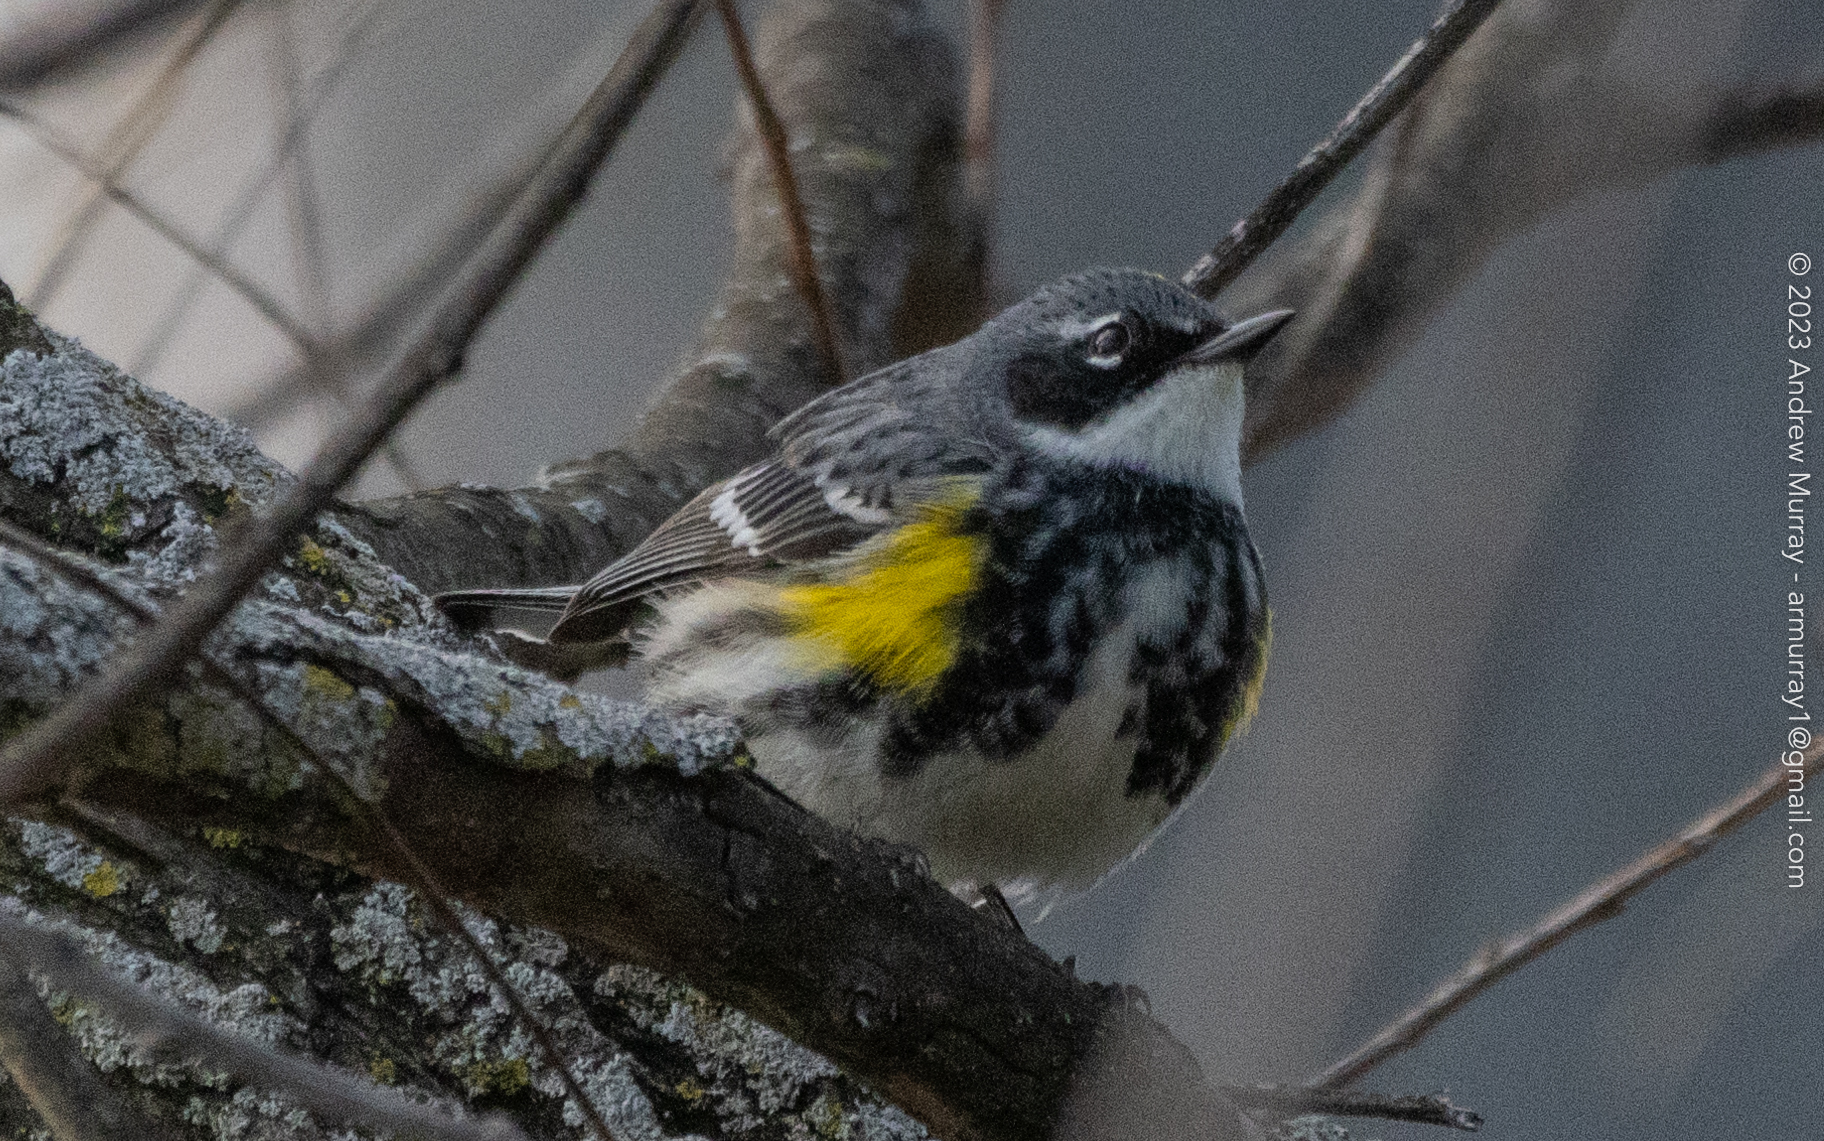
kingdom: Animalia
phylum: Chordata
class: Aves
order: Passeriformes
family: Parulidae
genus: Setophaga
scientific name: Setophaga coronata
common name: Myrtle warbler
